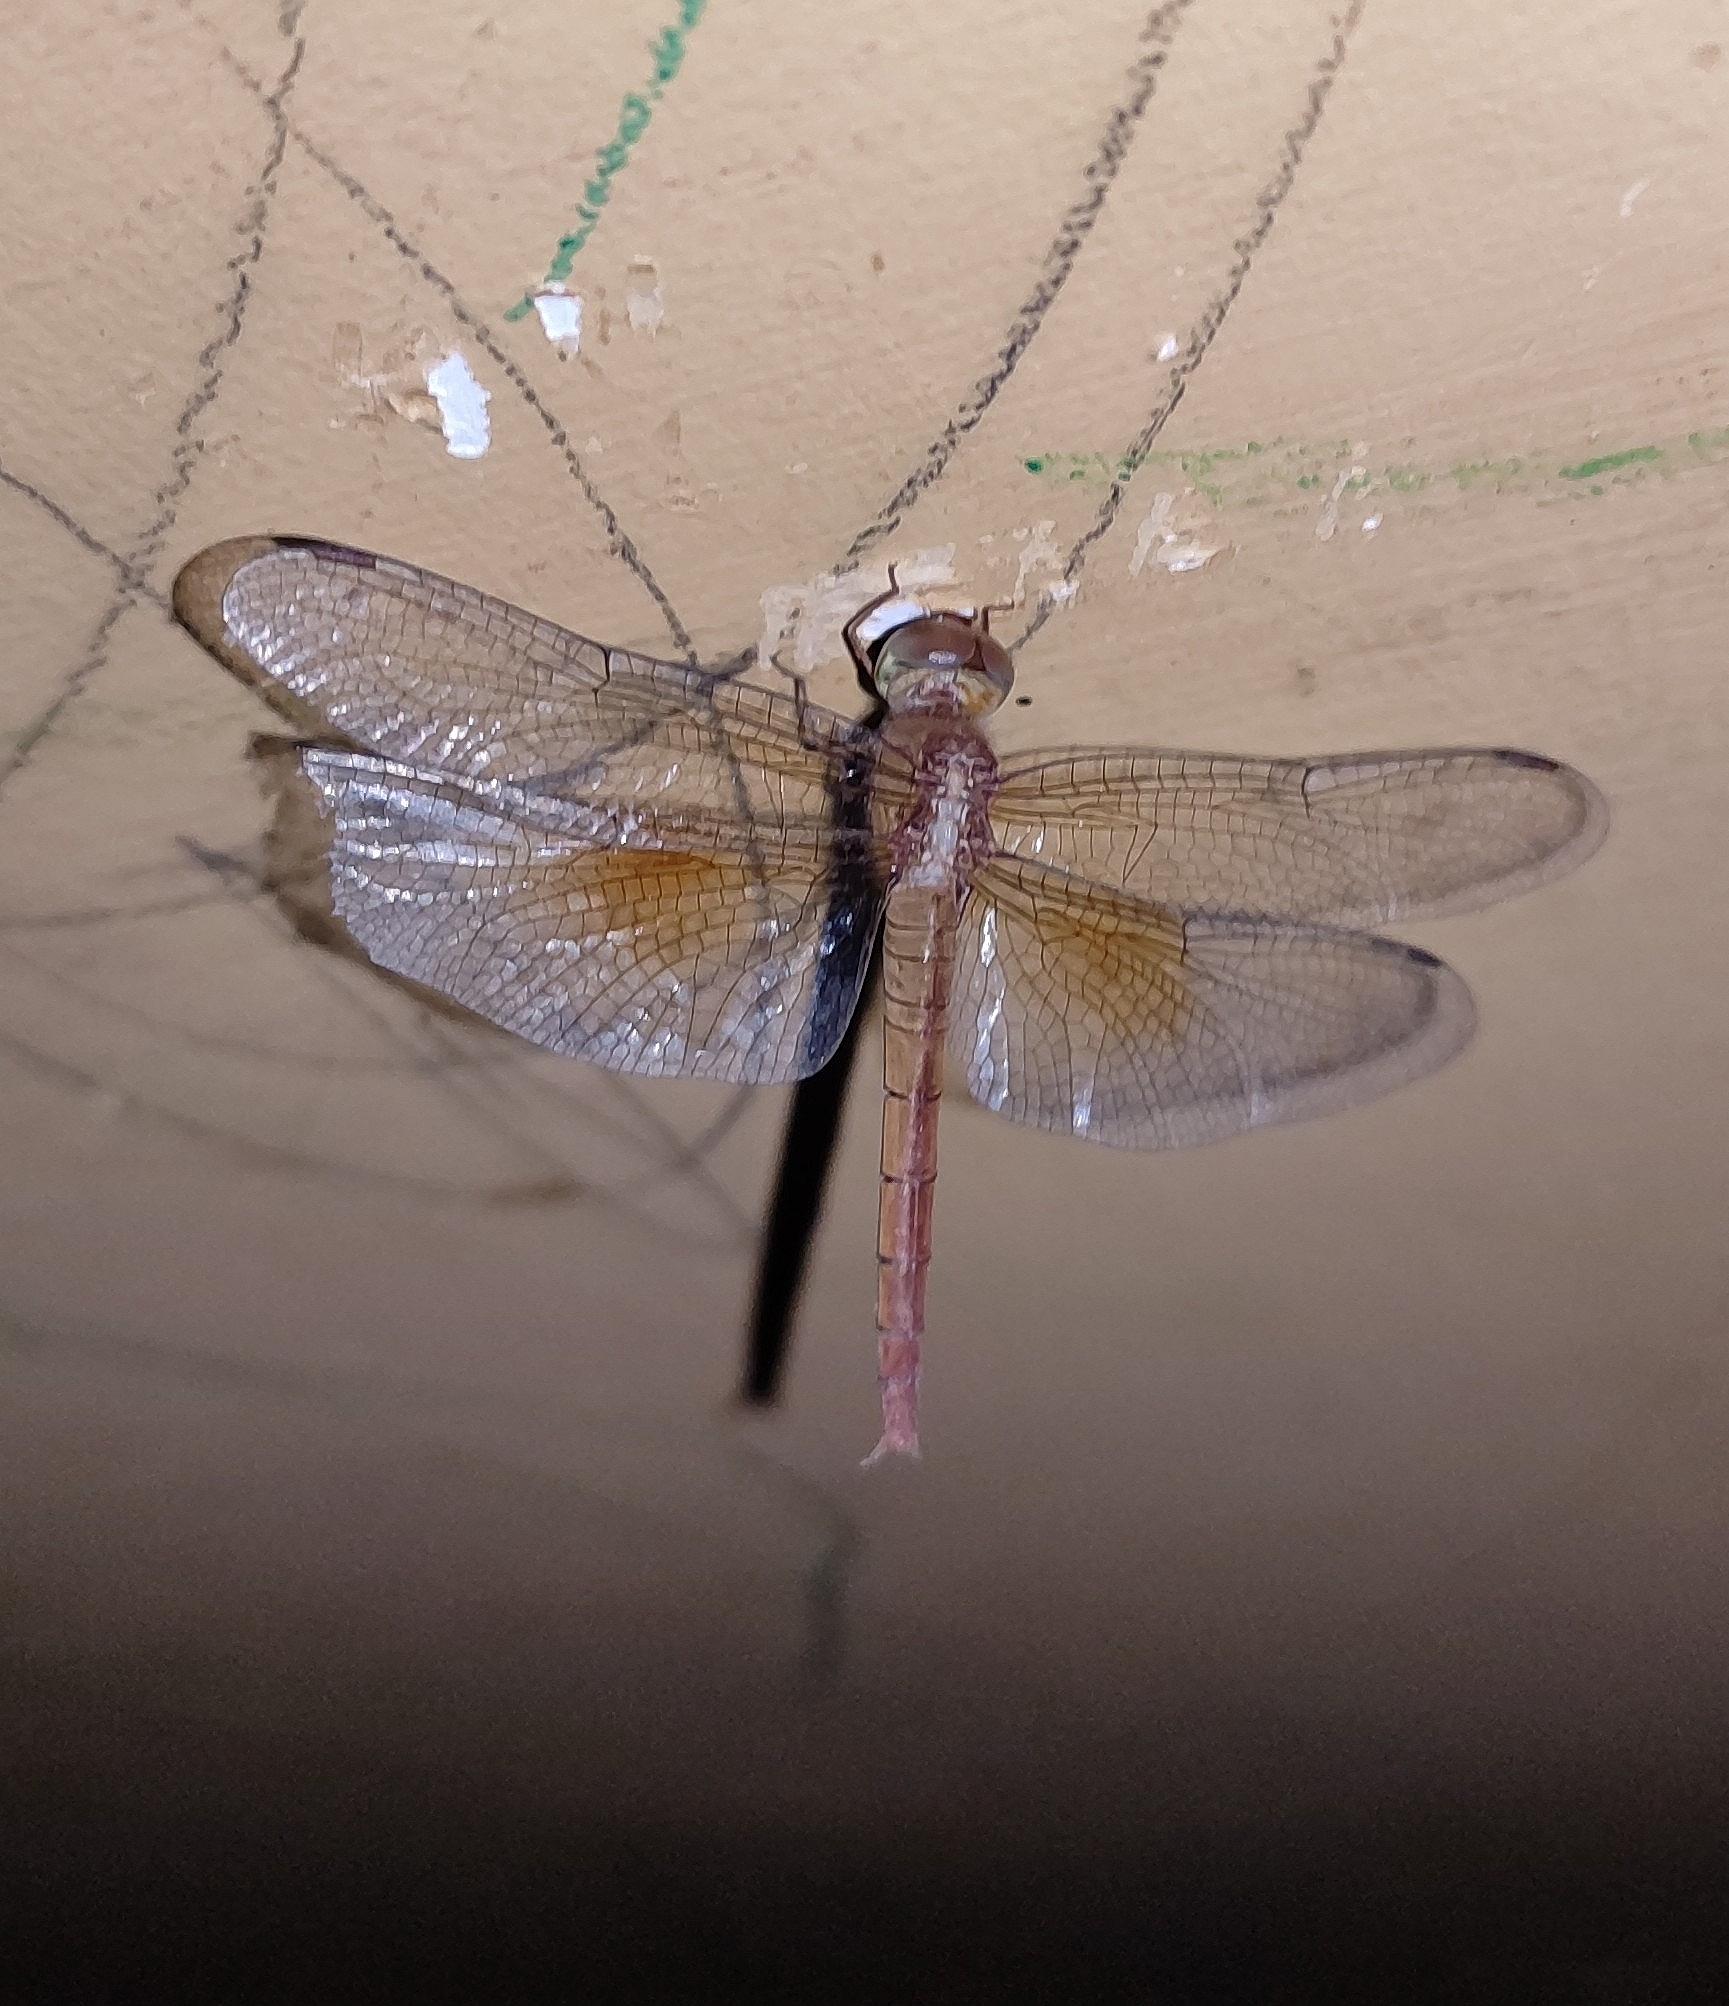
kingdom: Animalia
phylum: Arthropoda
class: Insecta
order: Odonata
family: Libellulidae
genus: Tholymis
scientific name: Tholymis tillarga
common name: Coral-tailed cloud wing
